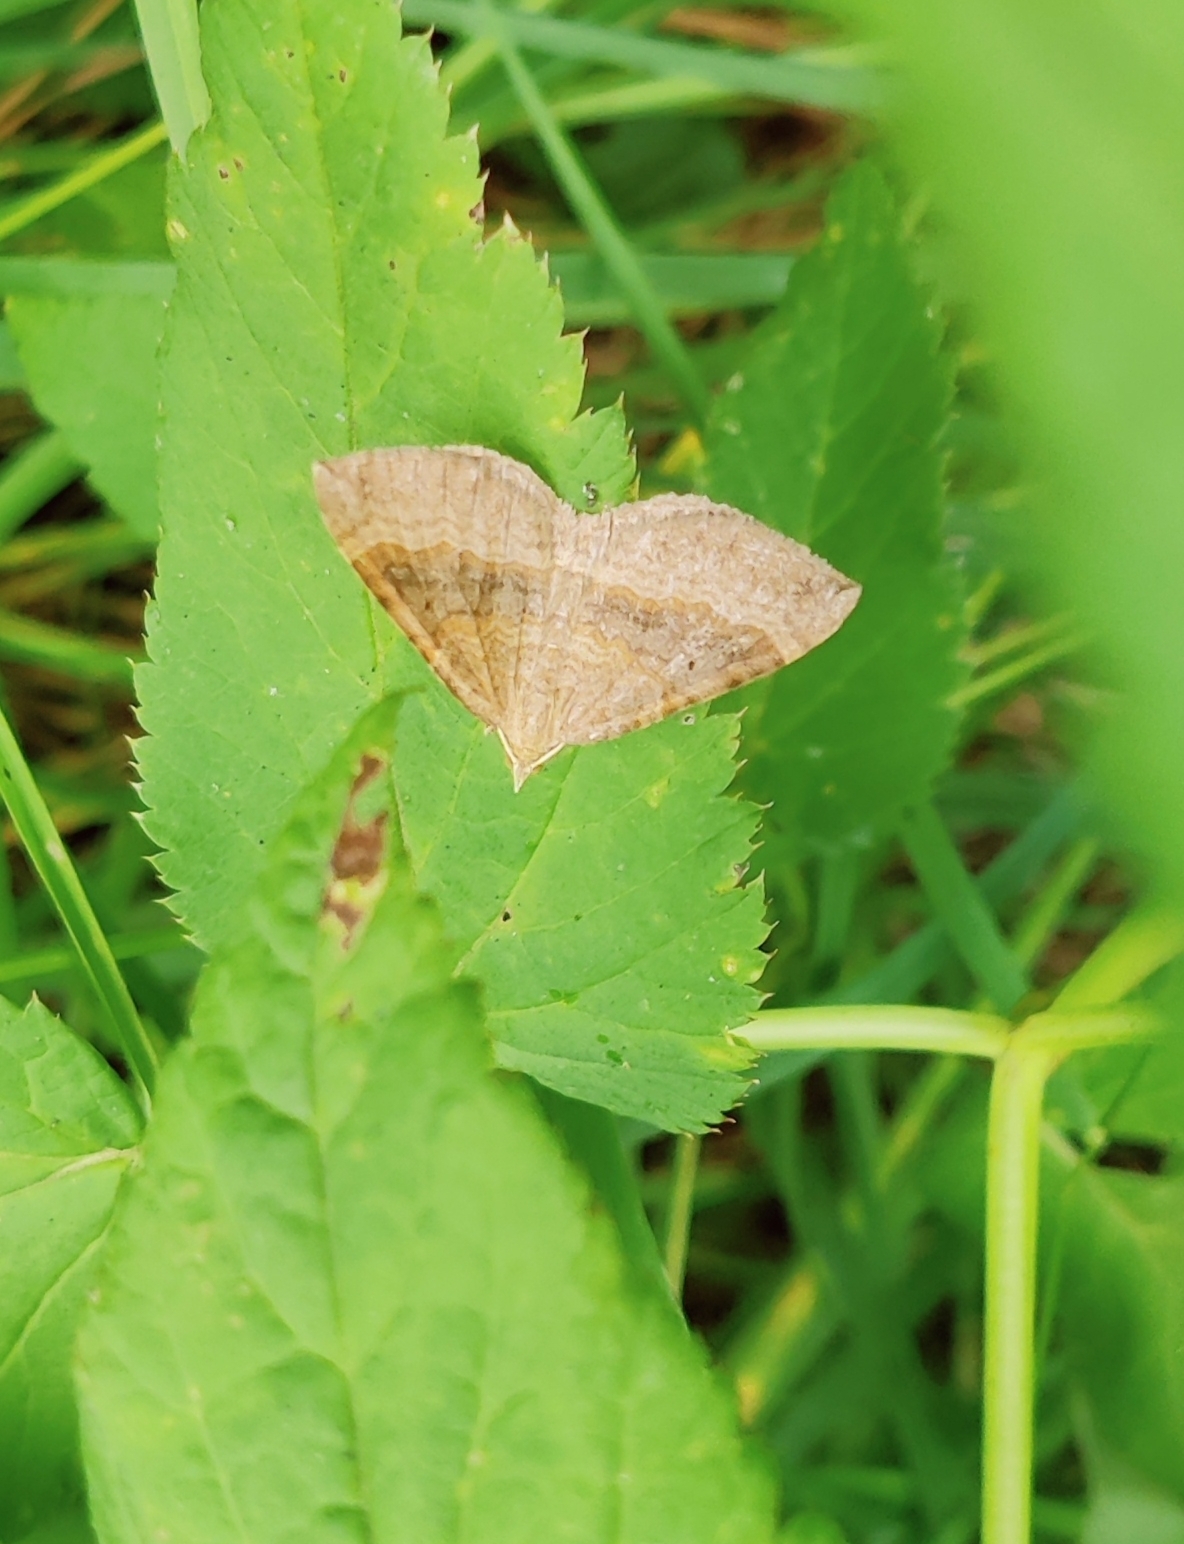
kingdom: Animalia
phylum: Arthropoda
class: Insecta
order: Lepidoptera
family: Geometridae
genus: Scotopteryx
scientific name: Scotopteryx chenopodiata
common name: Shaded broad-bar
